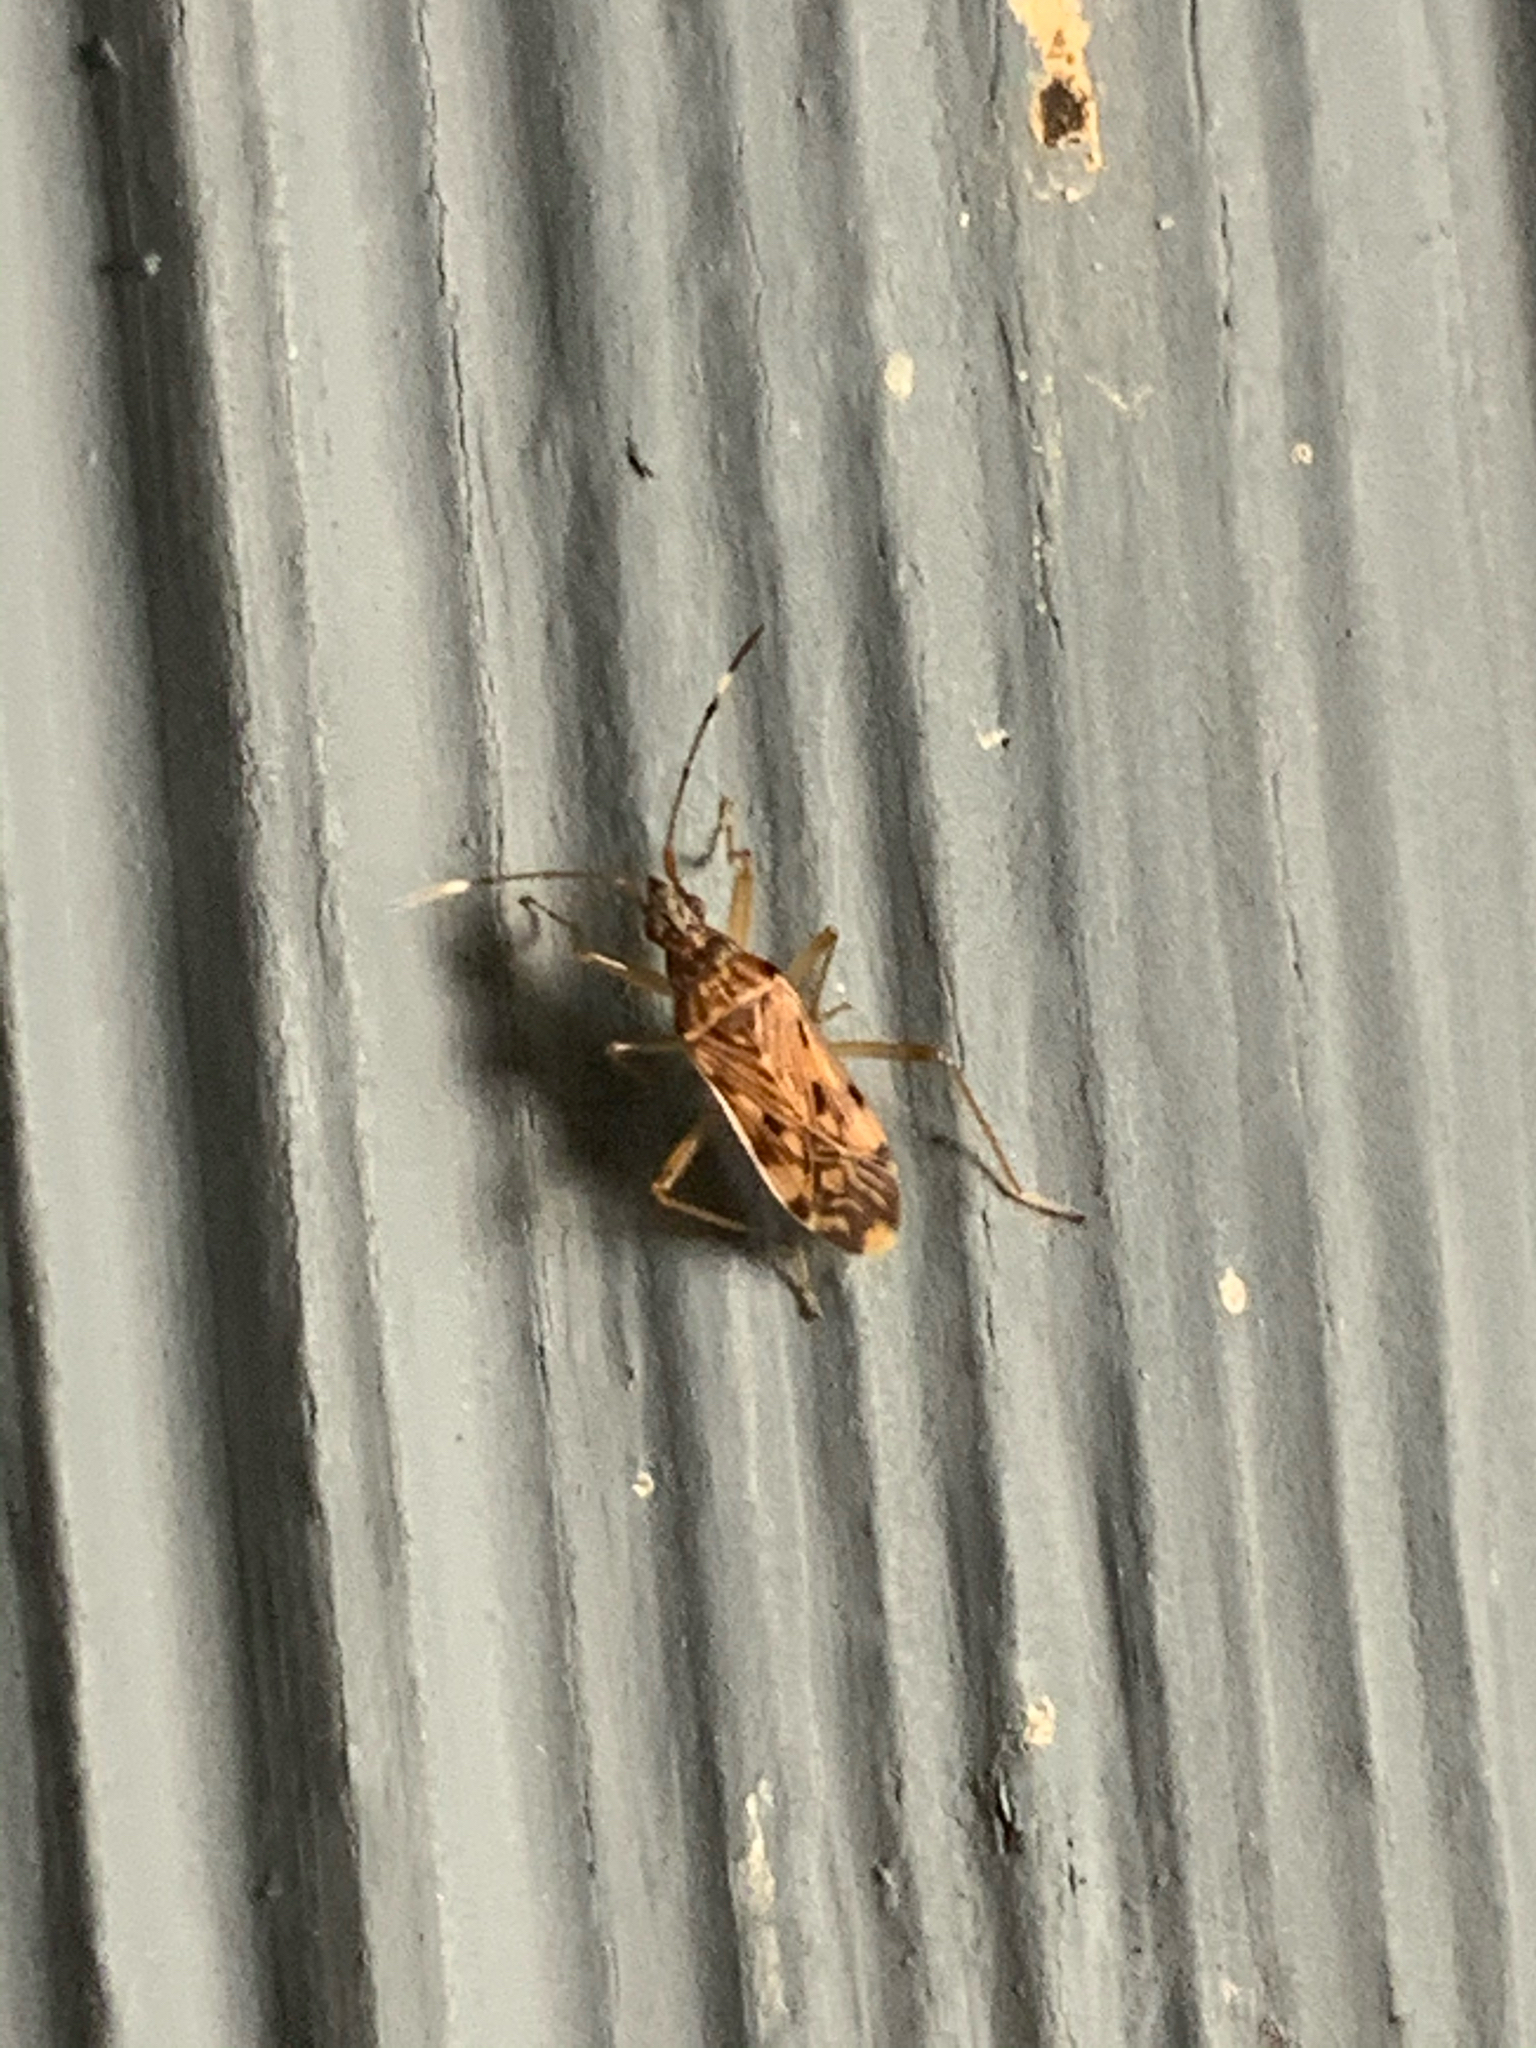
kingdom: Animalia
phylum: Arthropoda
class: Insecta
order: Hemiptera
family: Rhyparochromidae
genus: Ozophora
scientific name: Ozophora picturata
